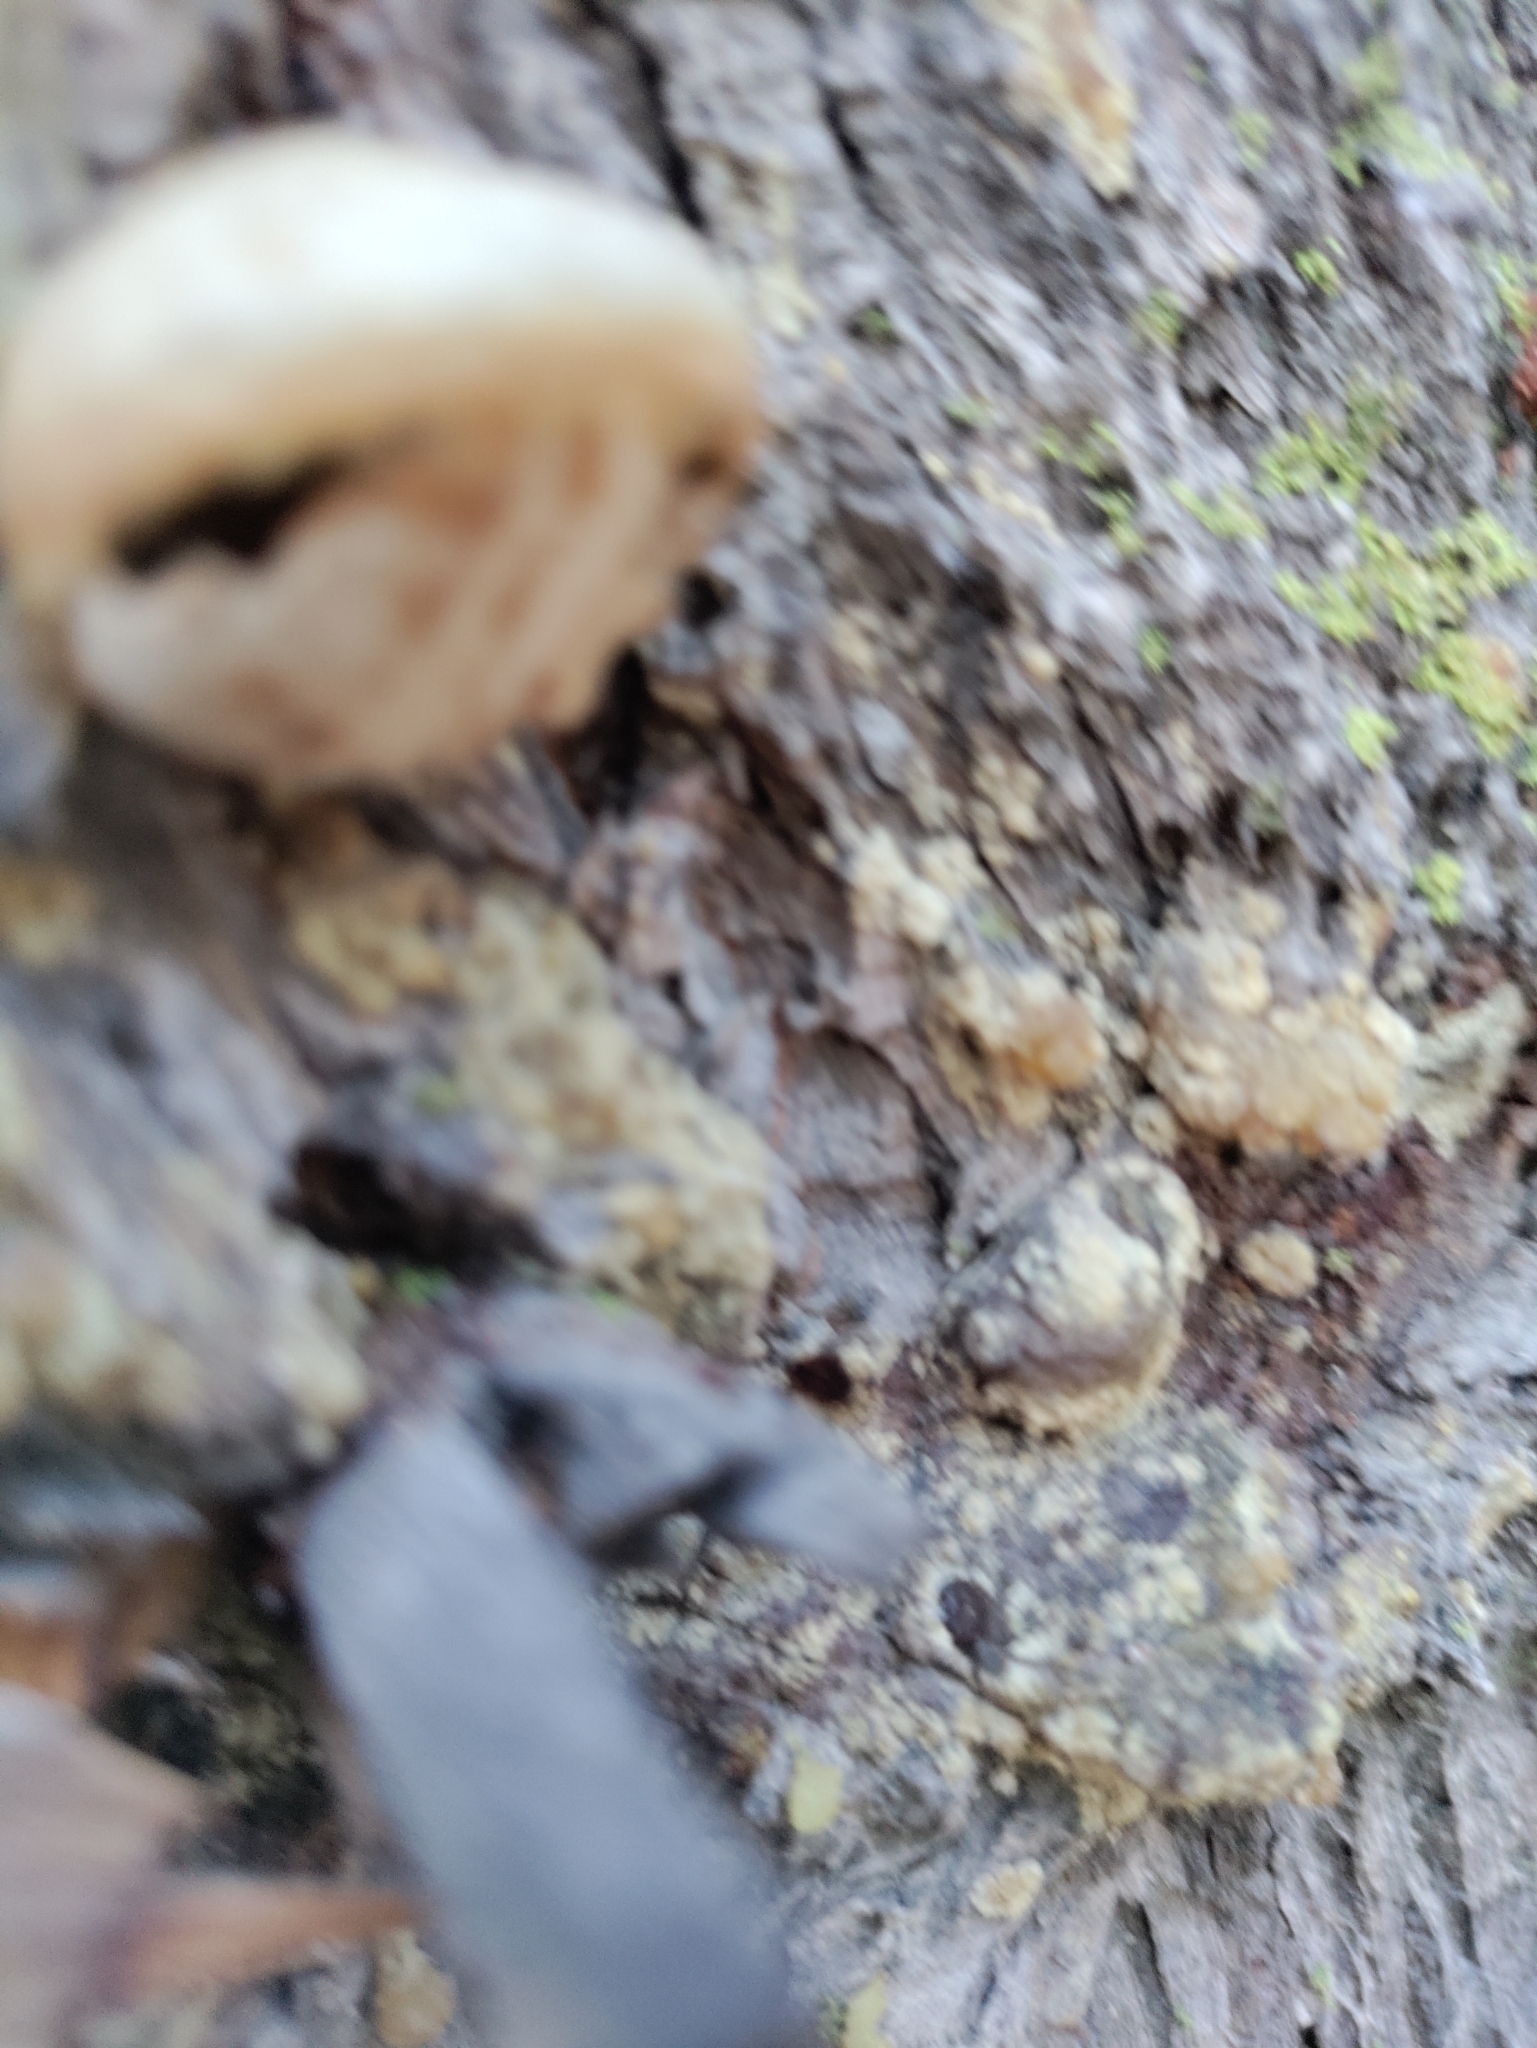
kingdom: Fungi
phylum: Basidiomycota
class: Agaricomycetes
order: Polyporales
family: Polyporaceae
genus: Cryptoporus
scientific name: Cryptoporus volvatus
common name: Veiled polypore
